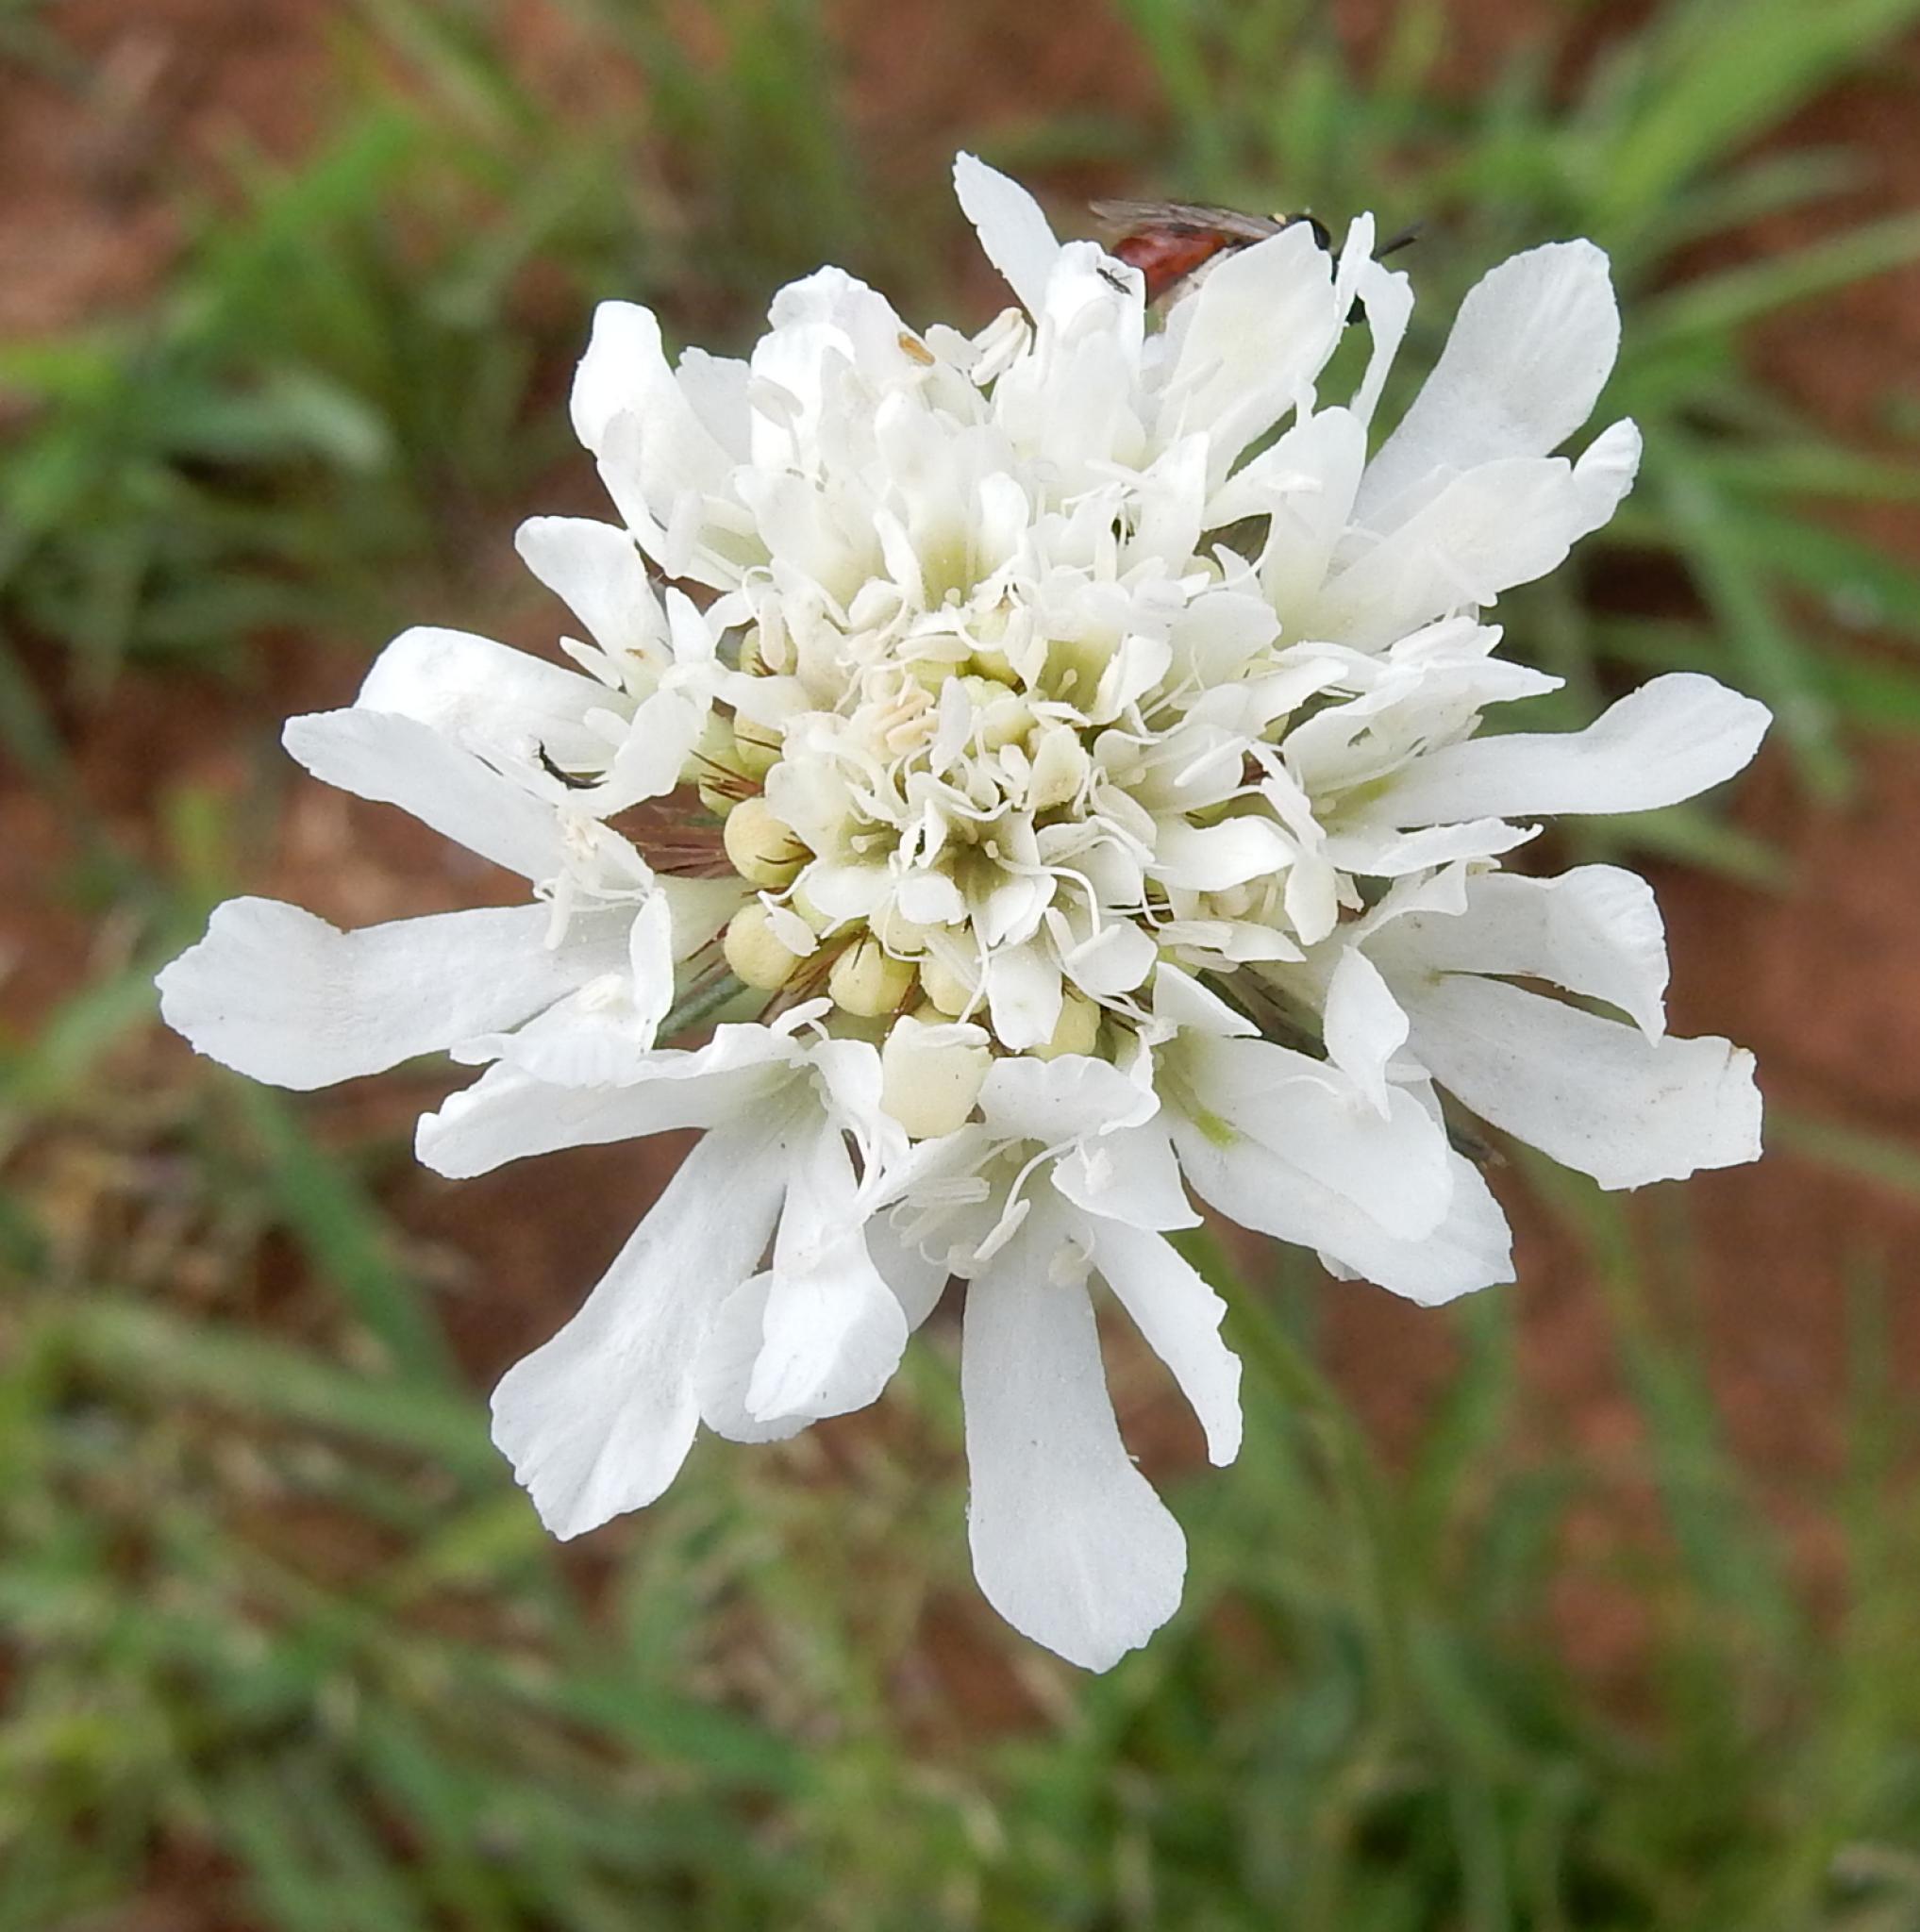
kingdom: Plantae
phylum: Tracheophyta
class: Magnoliopsida
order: Dipsacales
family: Caprifoliaceae
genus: Scabiosa
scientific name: Scabiosa columbaria
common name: Small scabious
